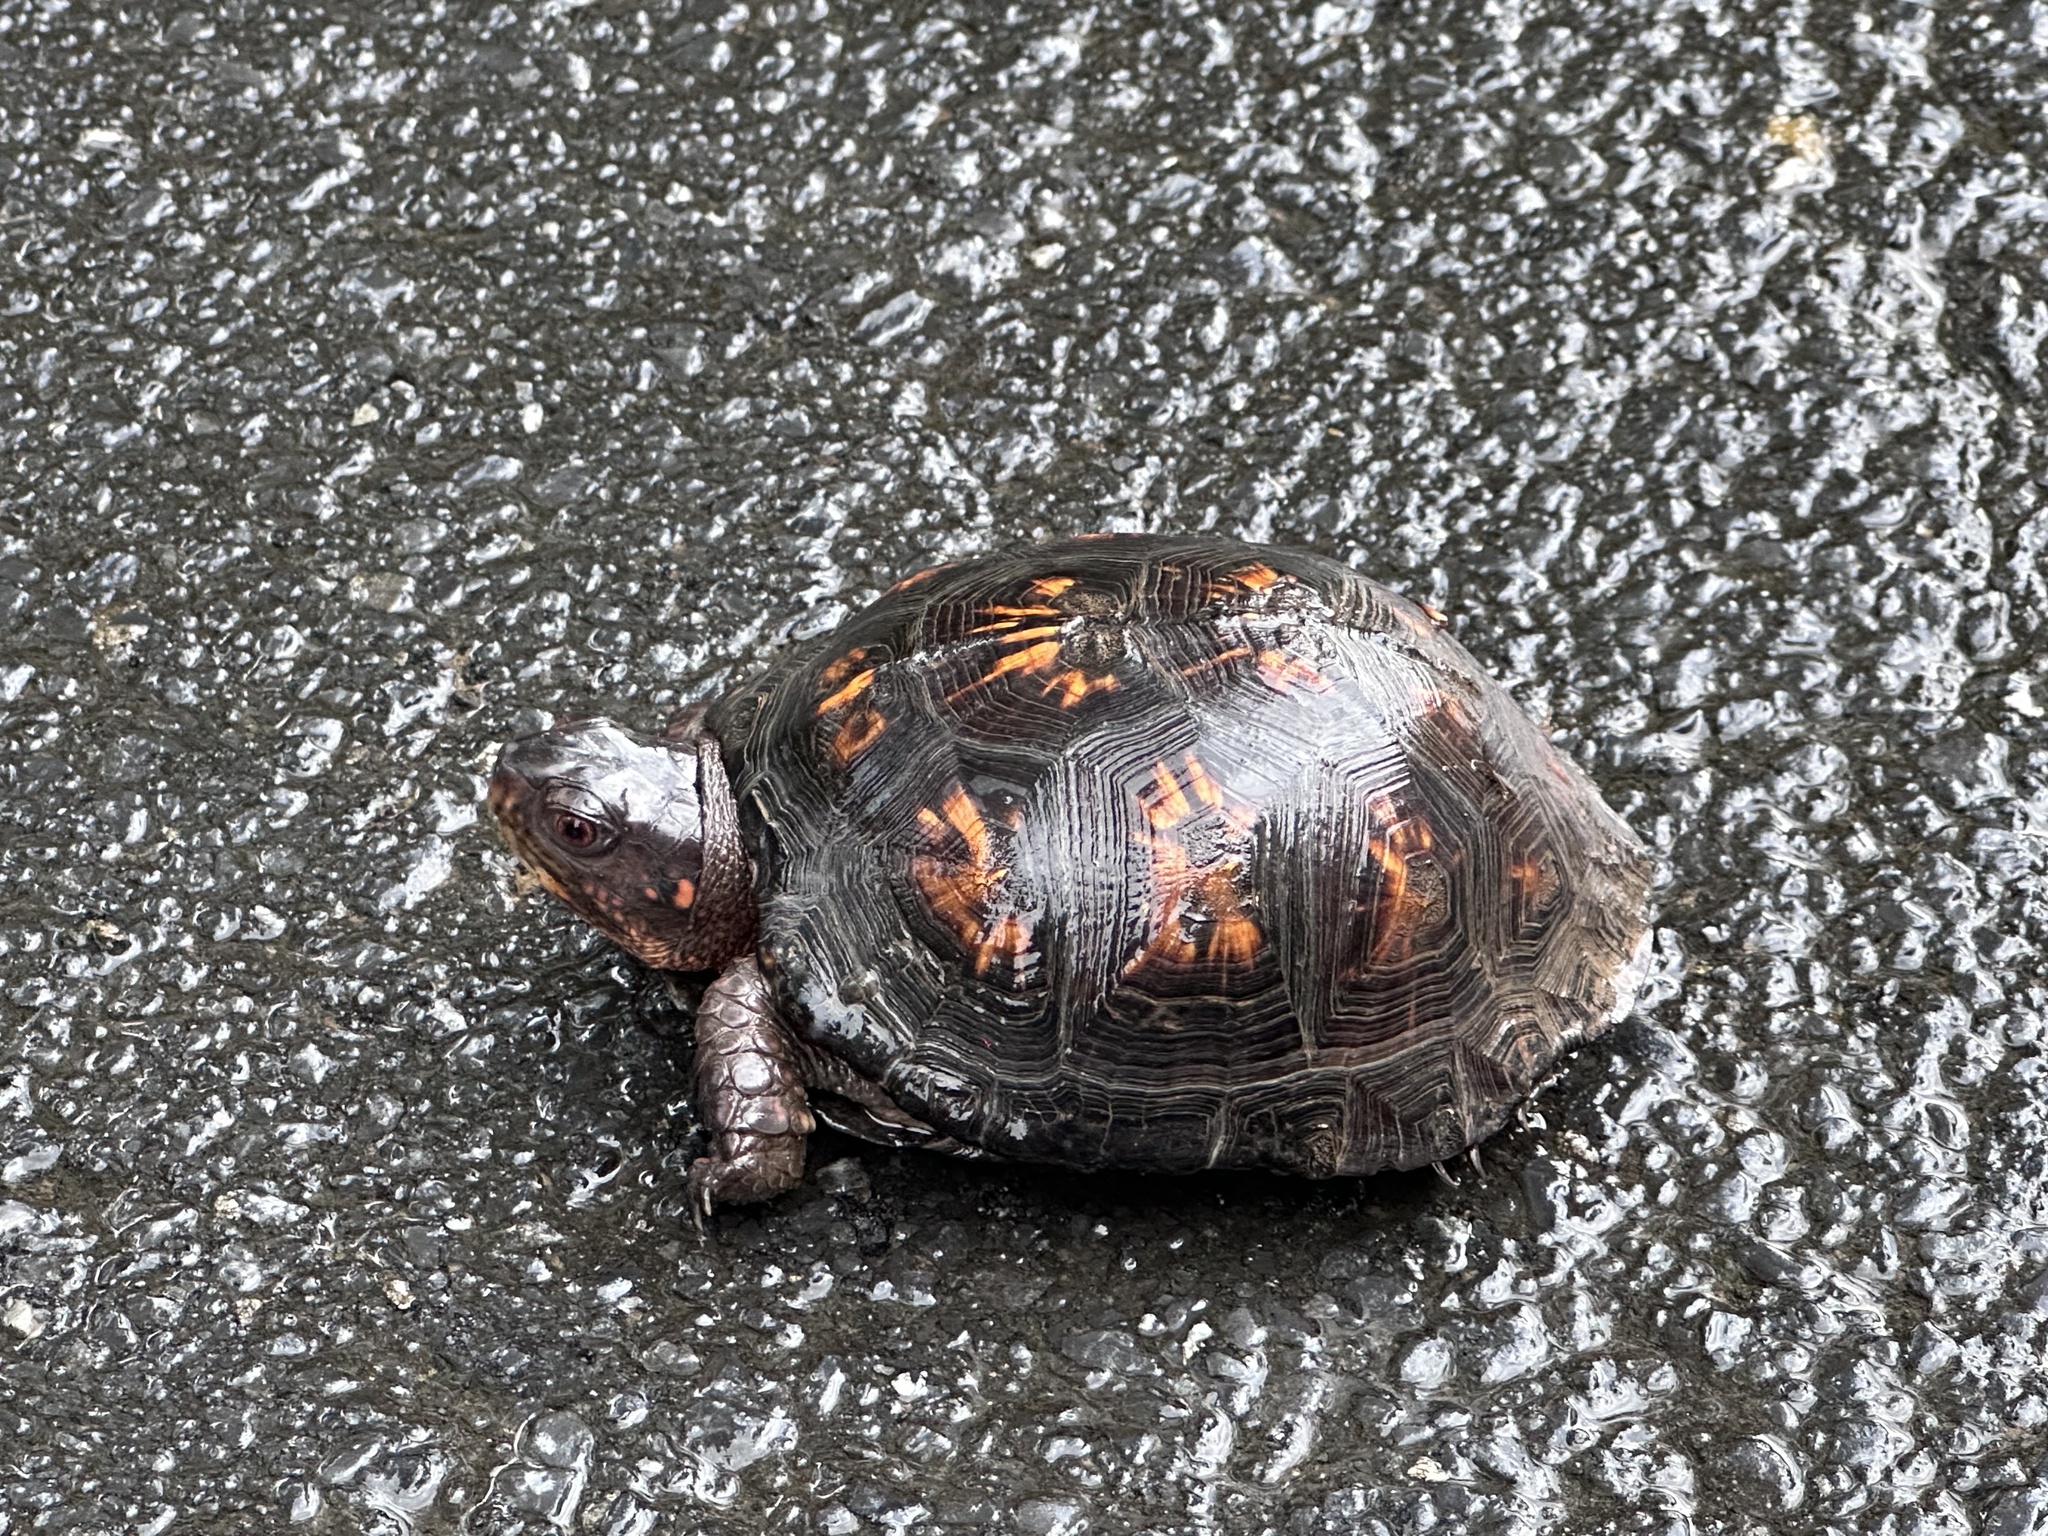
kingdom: Animalia
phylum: Chordata
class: Testudines
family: Emydidae
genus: Terrapene
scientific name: Terrapene carolina
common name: Common box turtle
